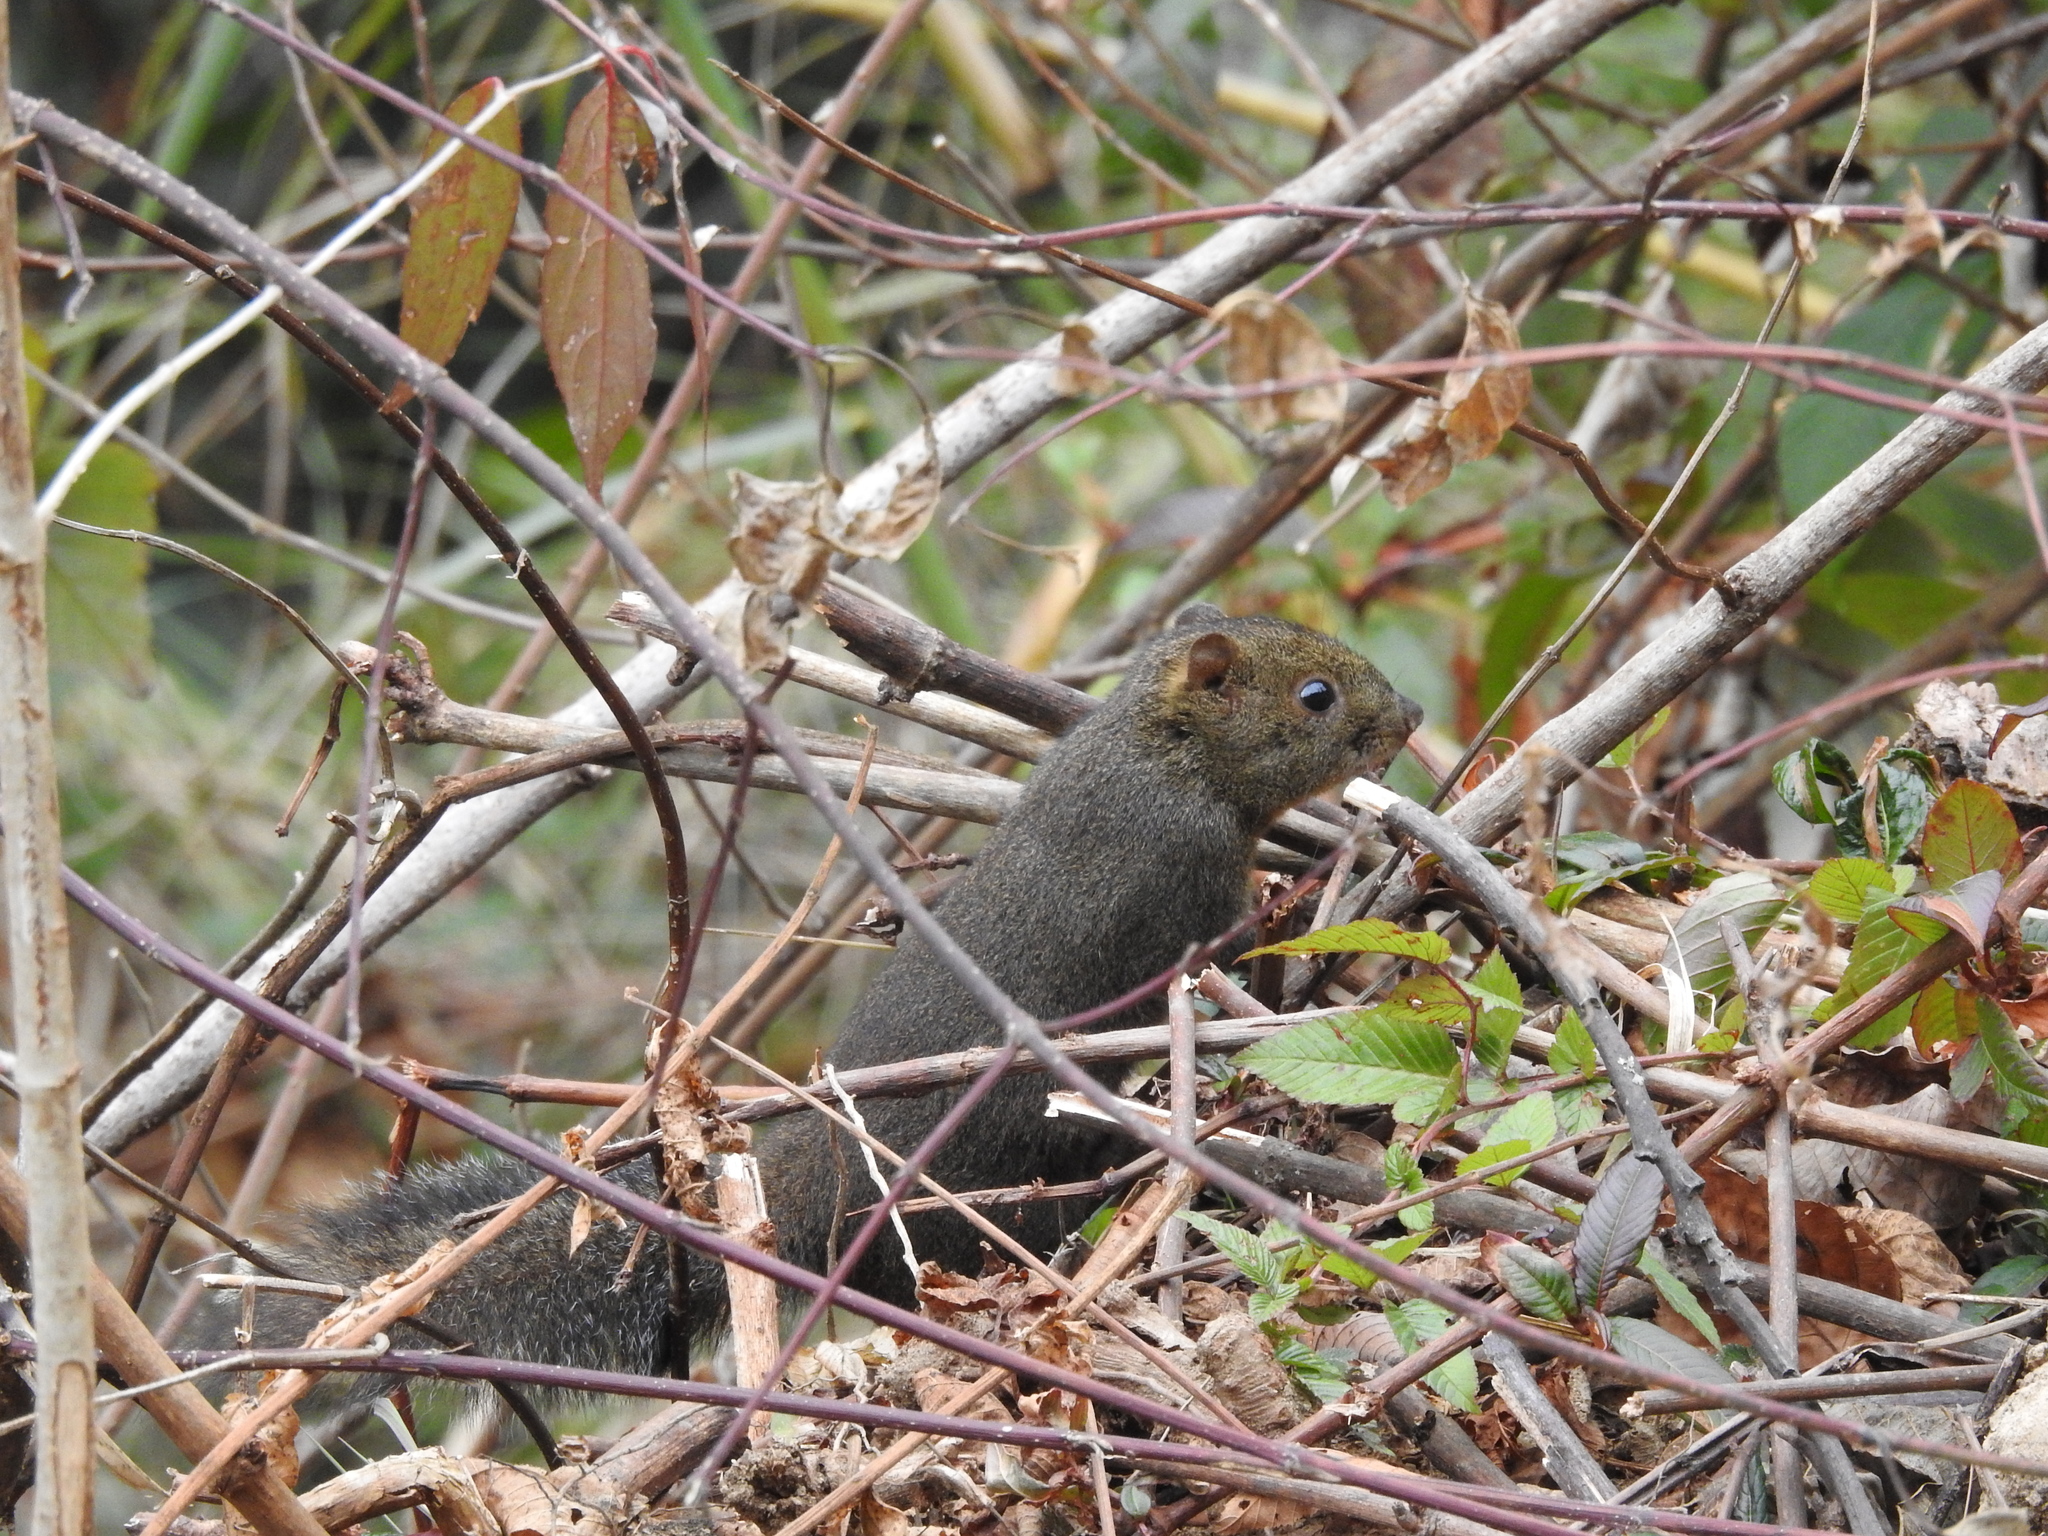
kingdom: Animalia
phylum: Chordata
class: Mammalia
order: Rodentia
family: Sciuridae
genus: Dremomys
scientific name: Dremomys lokriah
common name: Orange-bellied himalayan squirrel
